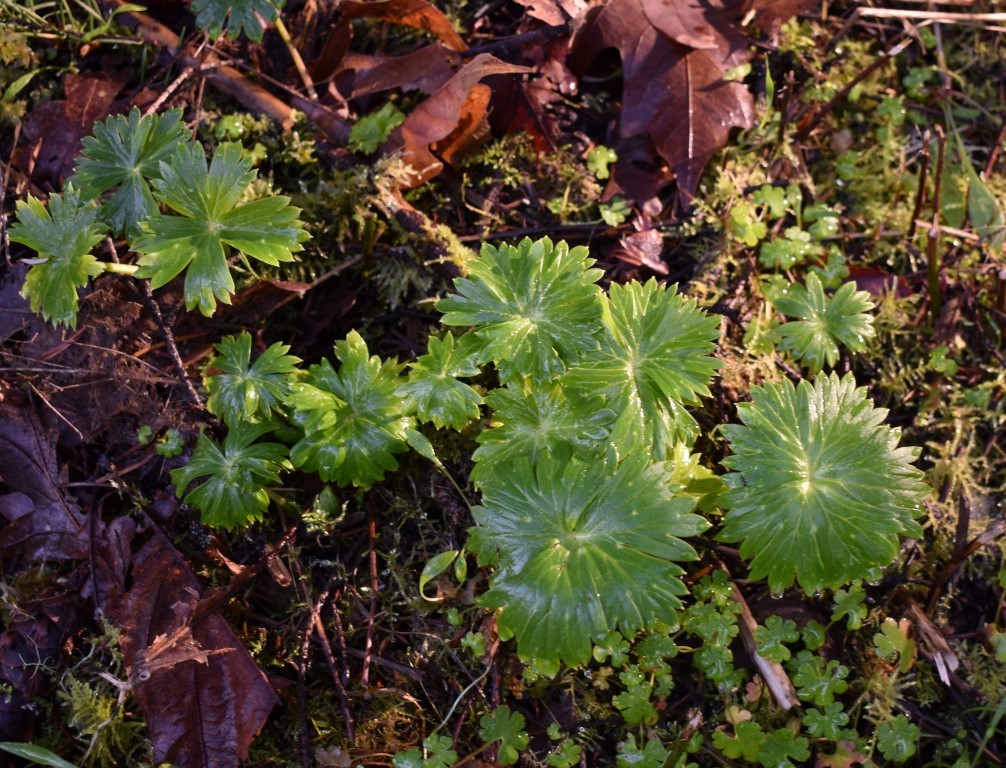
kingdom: Plantae
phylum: Tracheophyta
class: Magnoliopsida
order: Ranunculales
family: Ranunculaceae
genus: Delphinium
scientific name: Delphinium trolliifolium
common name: Cow-poison
